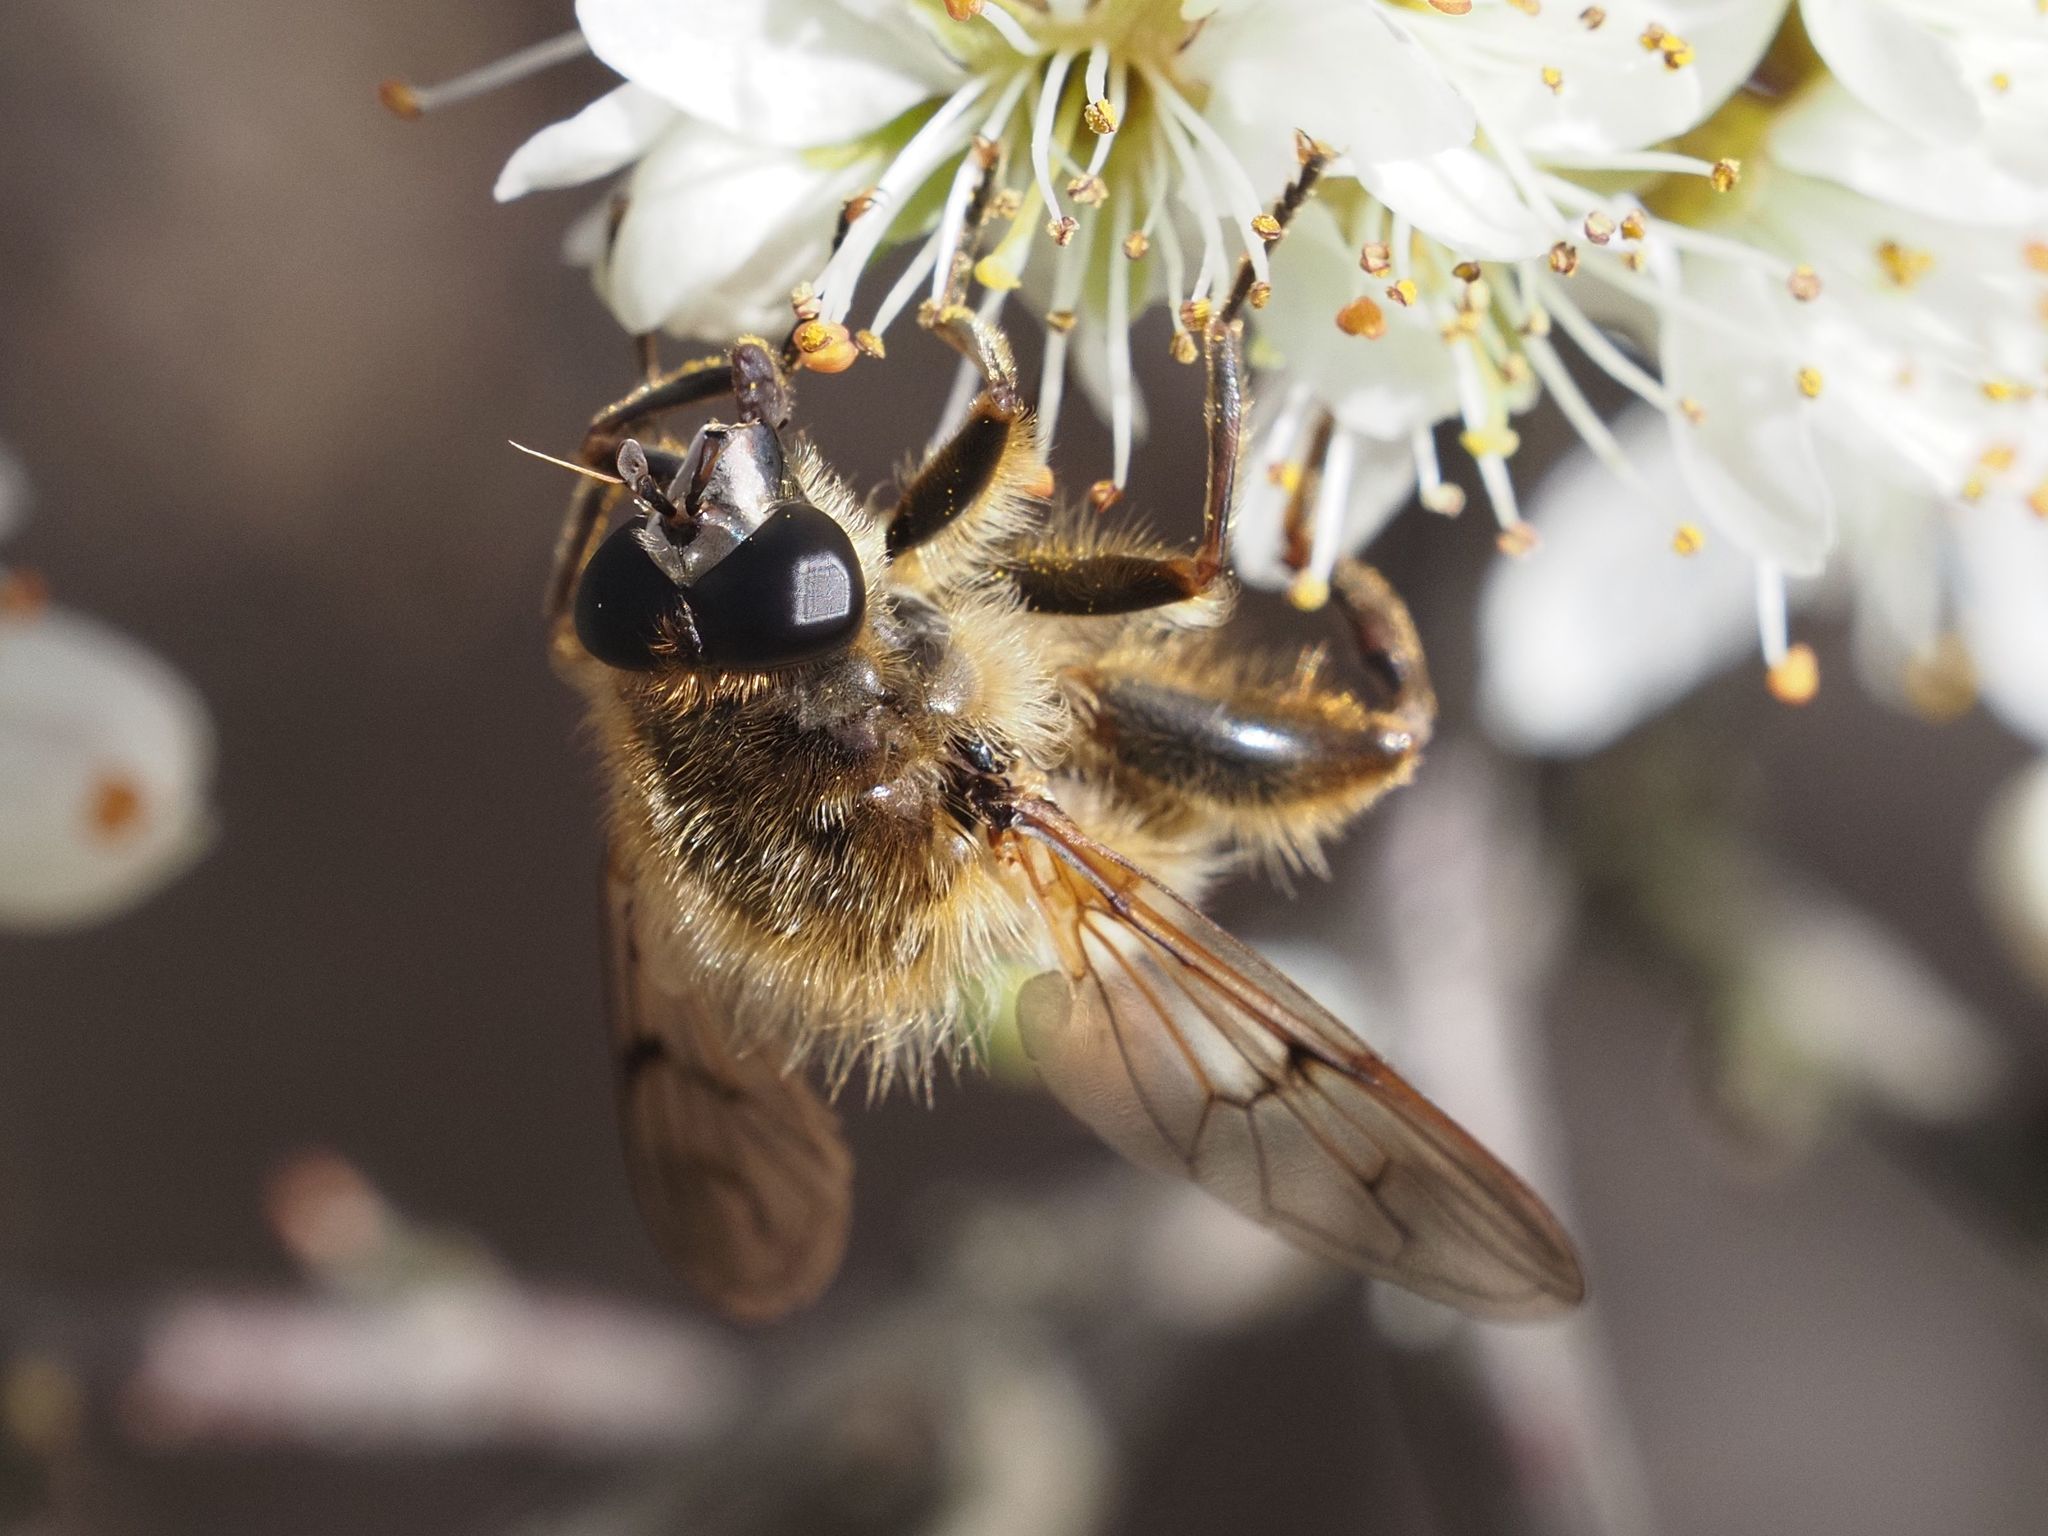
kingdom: Animalia
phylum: Arthropoda
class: Insecta
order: Diptera
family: Syrphidae
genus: Brachypalpus
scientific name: Brachypalpus valgus
